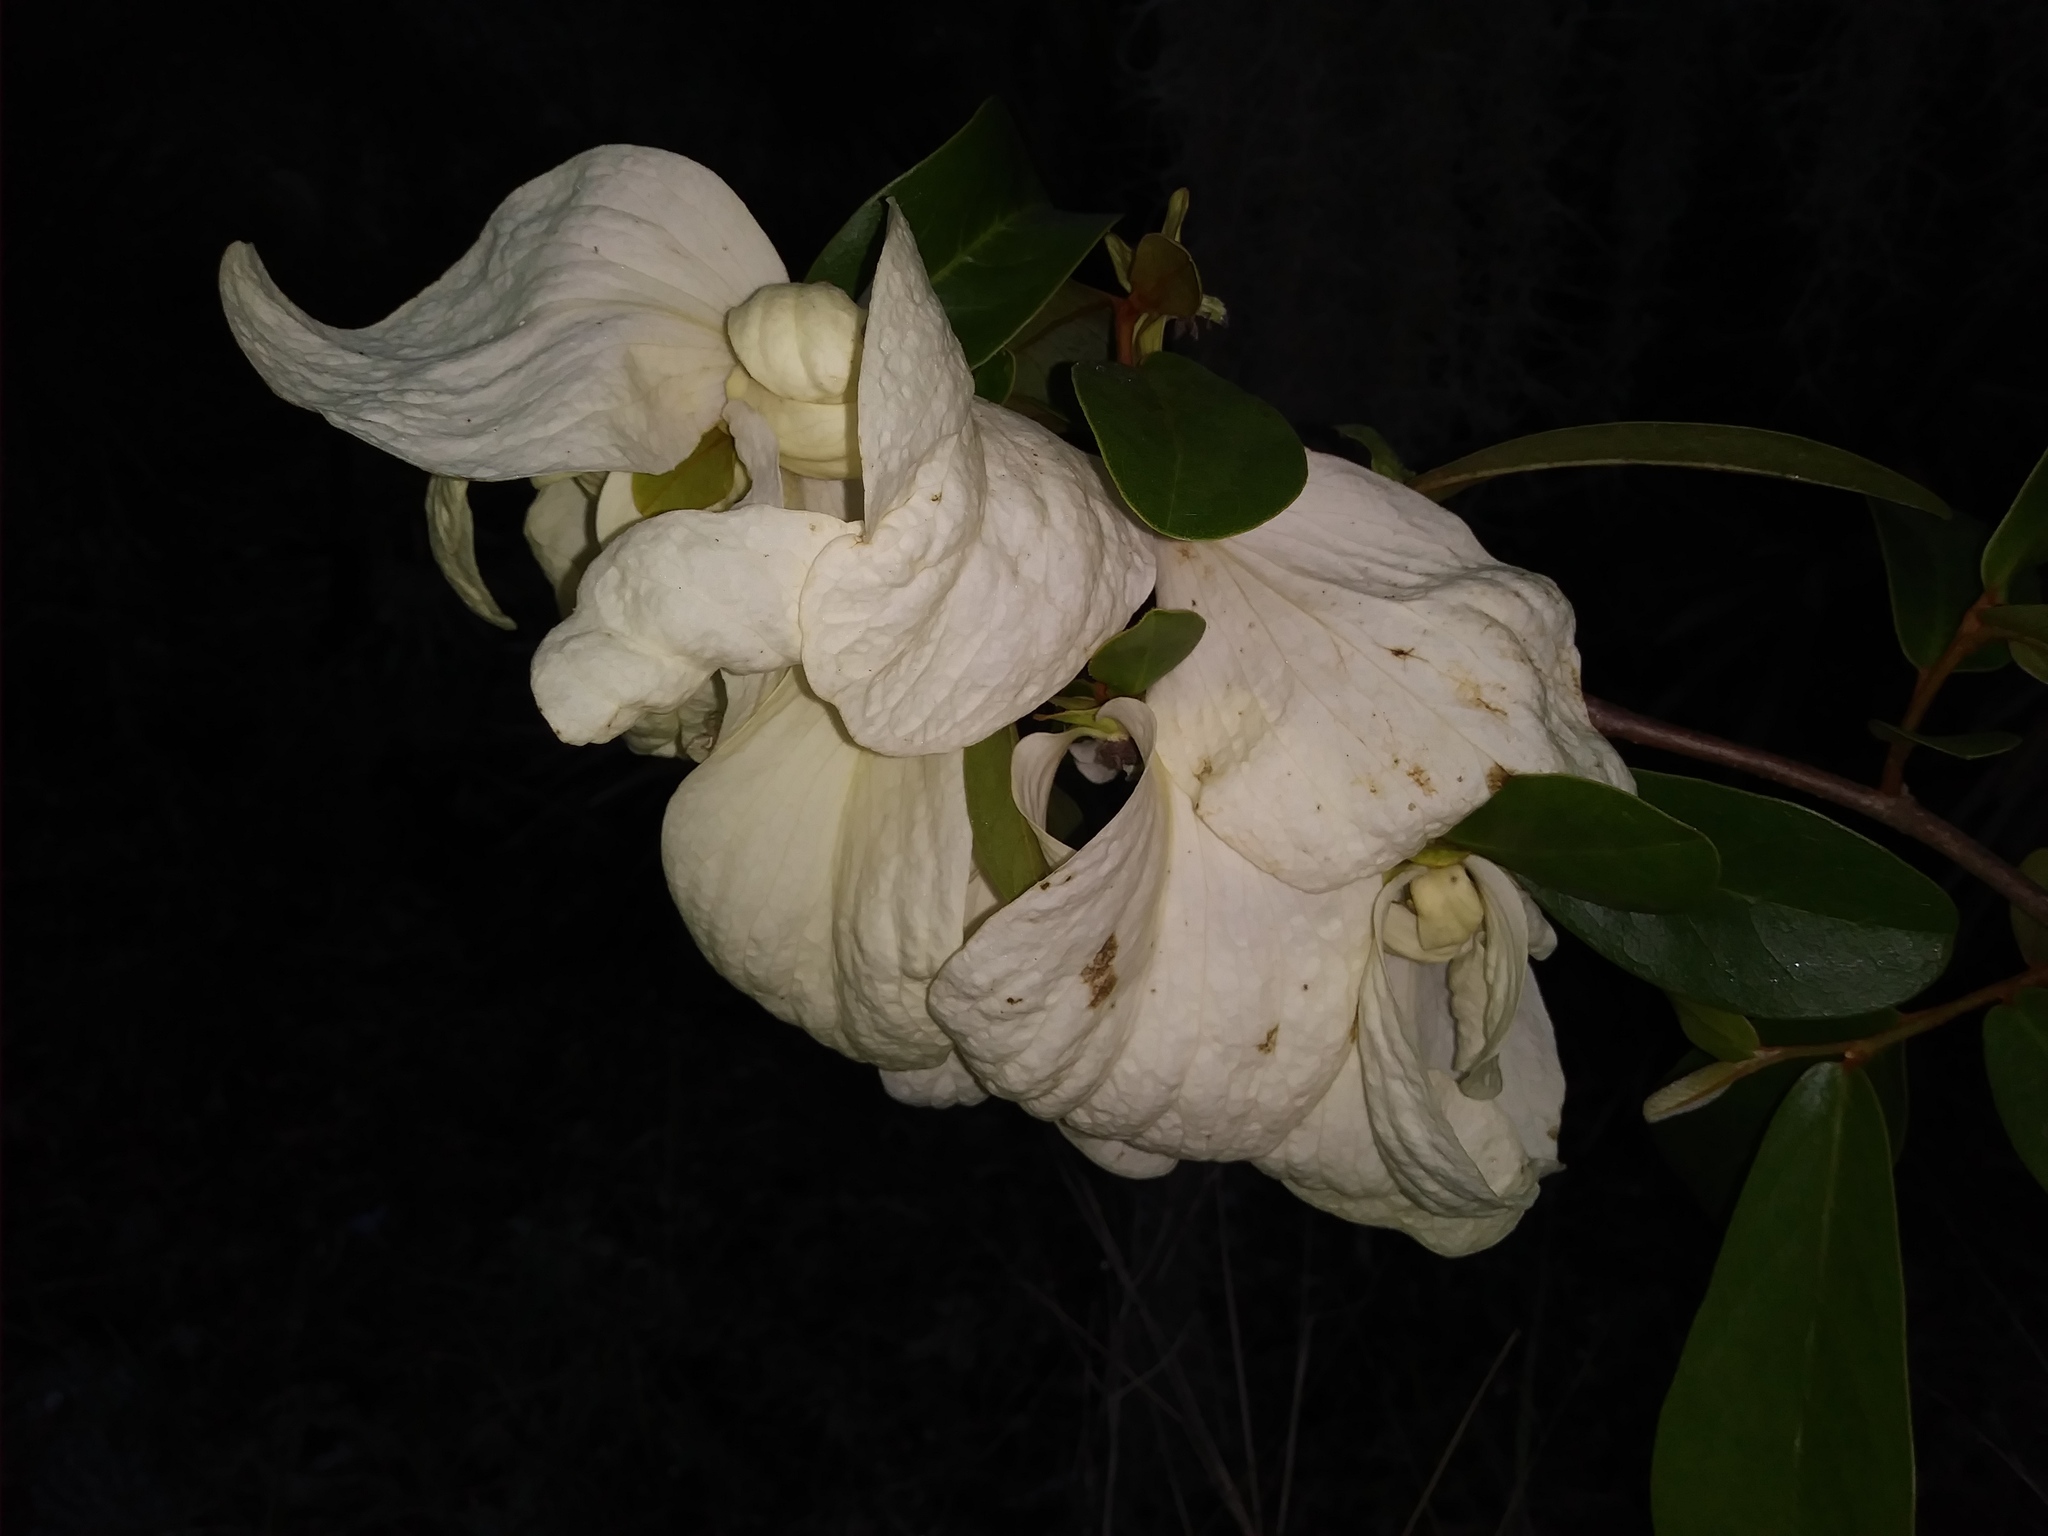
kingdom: Plantae
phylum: Tracheophyta
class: Magnoliopsida
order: Magnoliales
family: Annonaceae
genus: Asimina
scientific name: Asimina obovata
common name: Flag pawpaw
